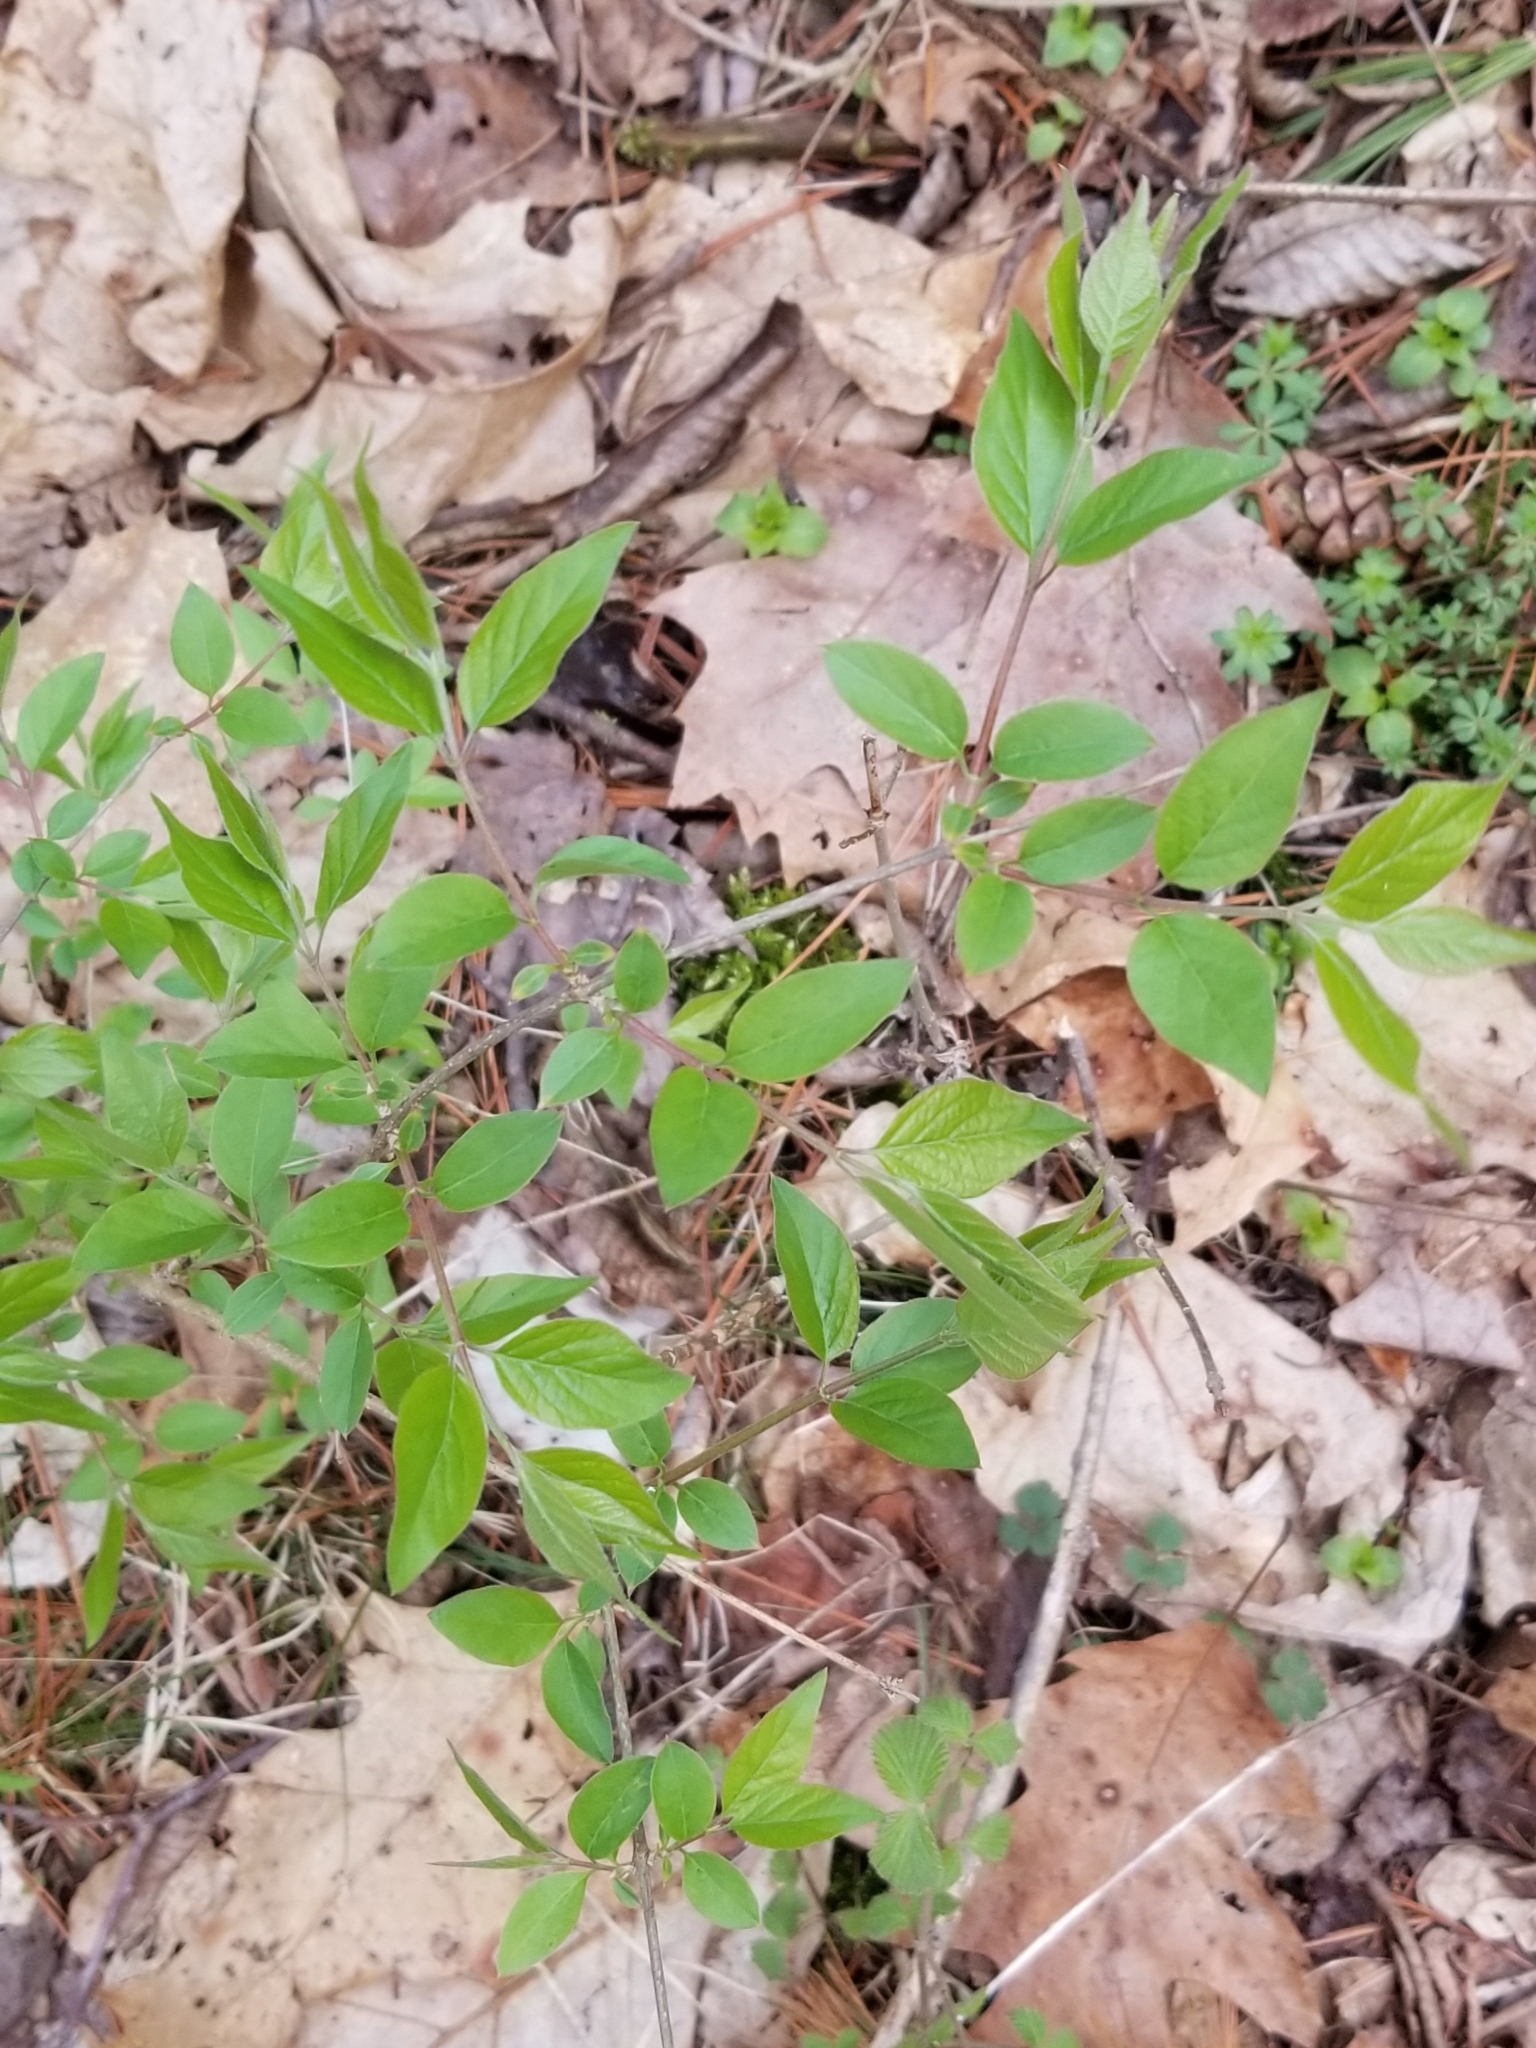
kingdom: Plantae
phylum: Tracheophyta
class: Magnoliopsida
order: Dipsacales
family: Caprifoliaceae
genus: Lonicera
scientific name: Lonicera maackii
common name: Amur honeysuckle
